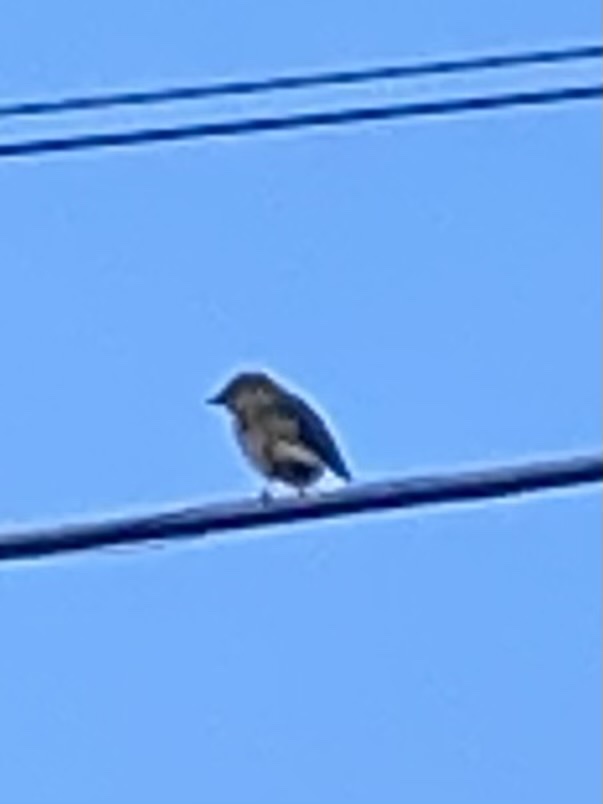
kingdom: Animalia
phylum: Chordata
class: Aves
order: Passeriformes
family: Turdidae
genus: Sialia
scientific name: Sialia sialis
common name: Eastern bluebird
